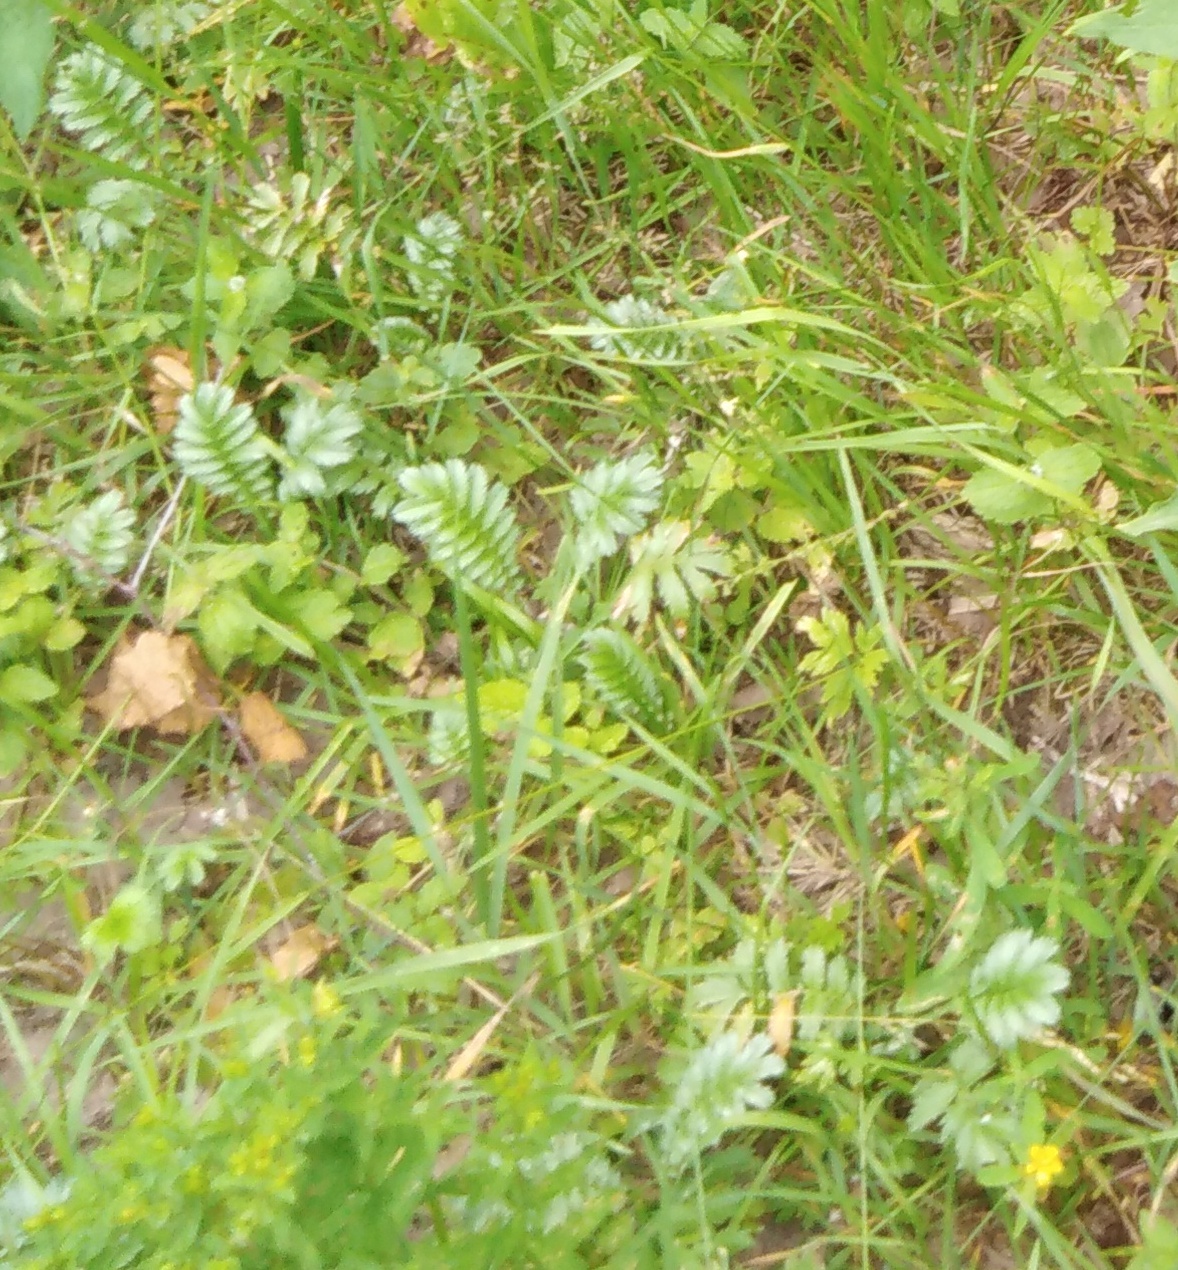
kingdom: Plantae
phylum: Tracheophyta
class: Magnoliopsida
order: Rosales
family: Rosaceae
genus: Argentina
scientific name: Argentina anserina
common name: Common silverweed
